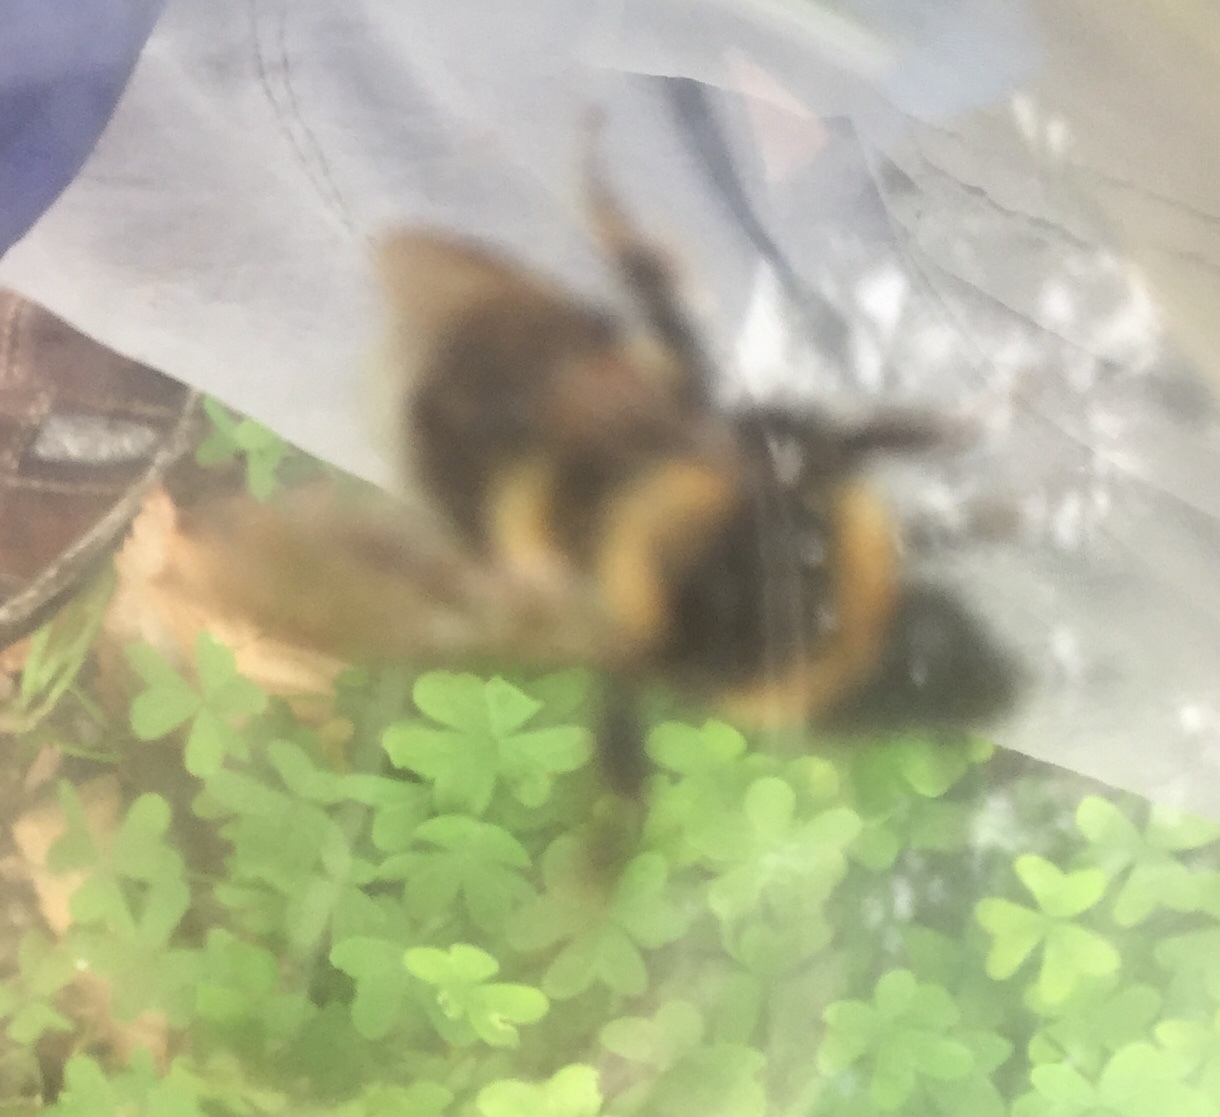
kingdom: Animalia
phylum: Arthropoda
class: Insecta
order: Hymenoptera
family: Apidae
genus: Bombus
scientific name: Bombus ruderatus
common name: Large garden bumblebee
